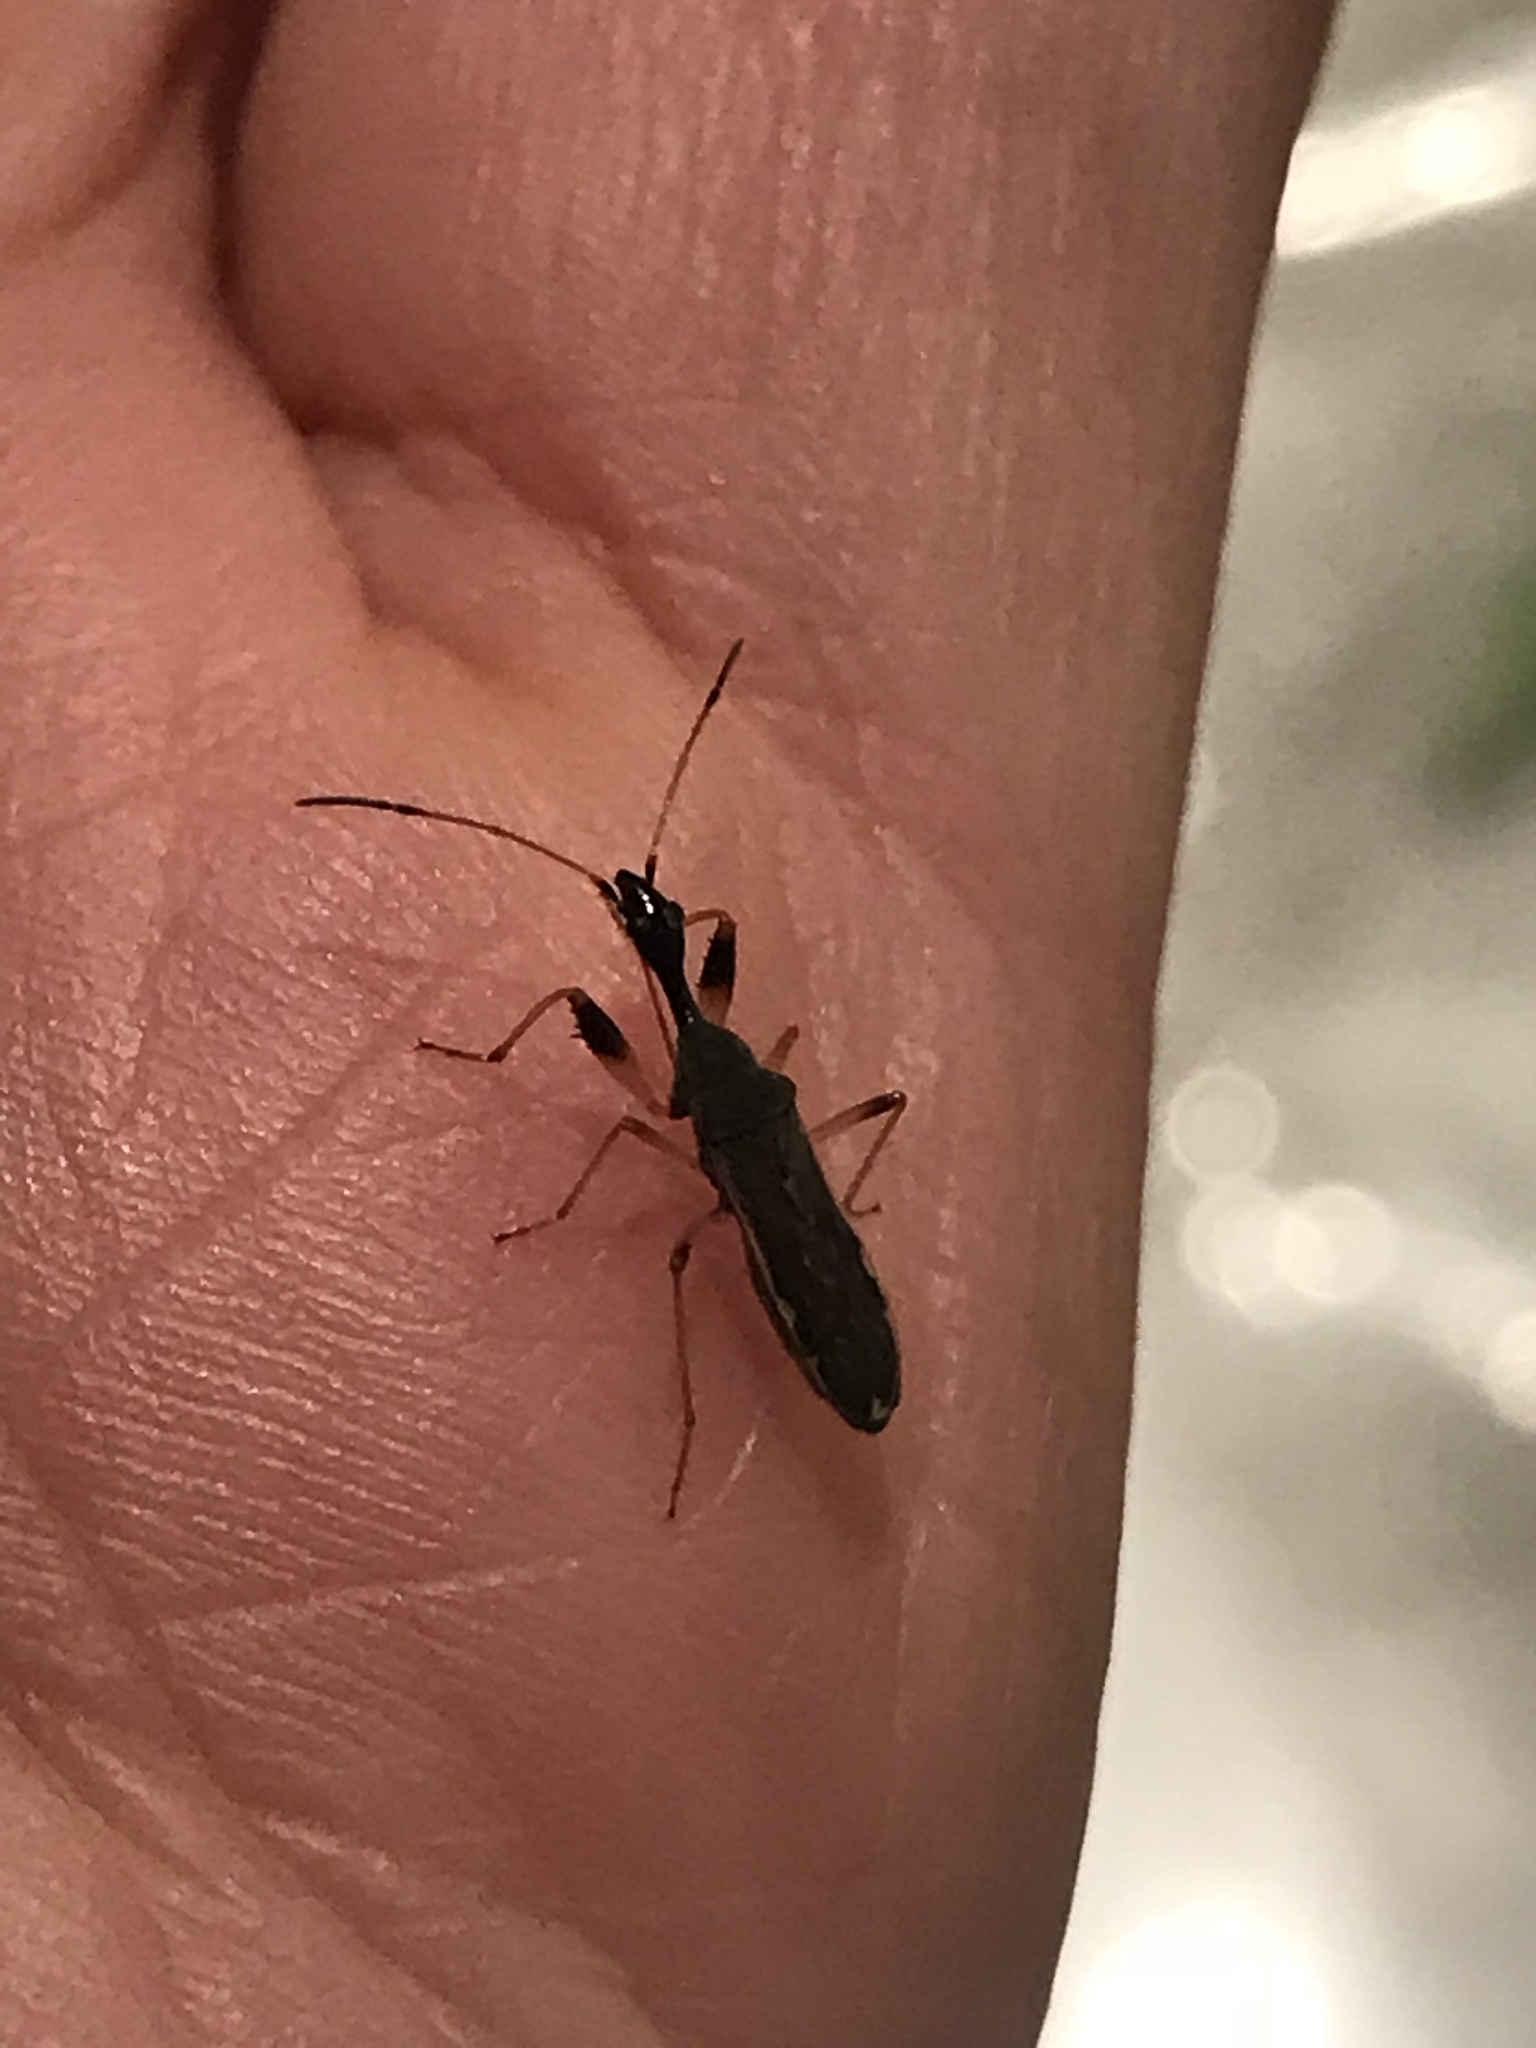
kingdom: Animalia
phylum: Arthropoda
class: Insecta
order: Hemiptera
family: Rhyparochromidae
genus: Myodocha
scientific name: Myodocha serripes
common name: Long-necked seed bug
